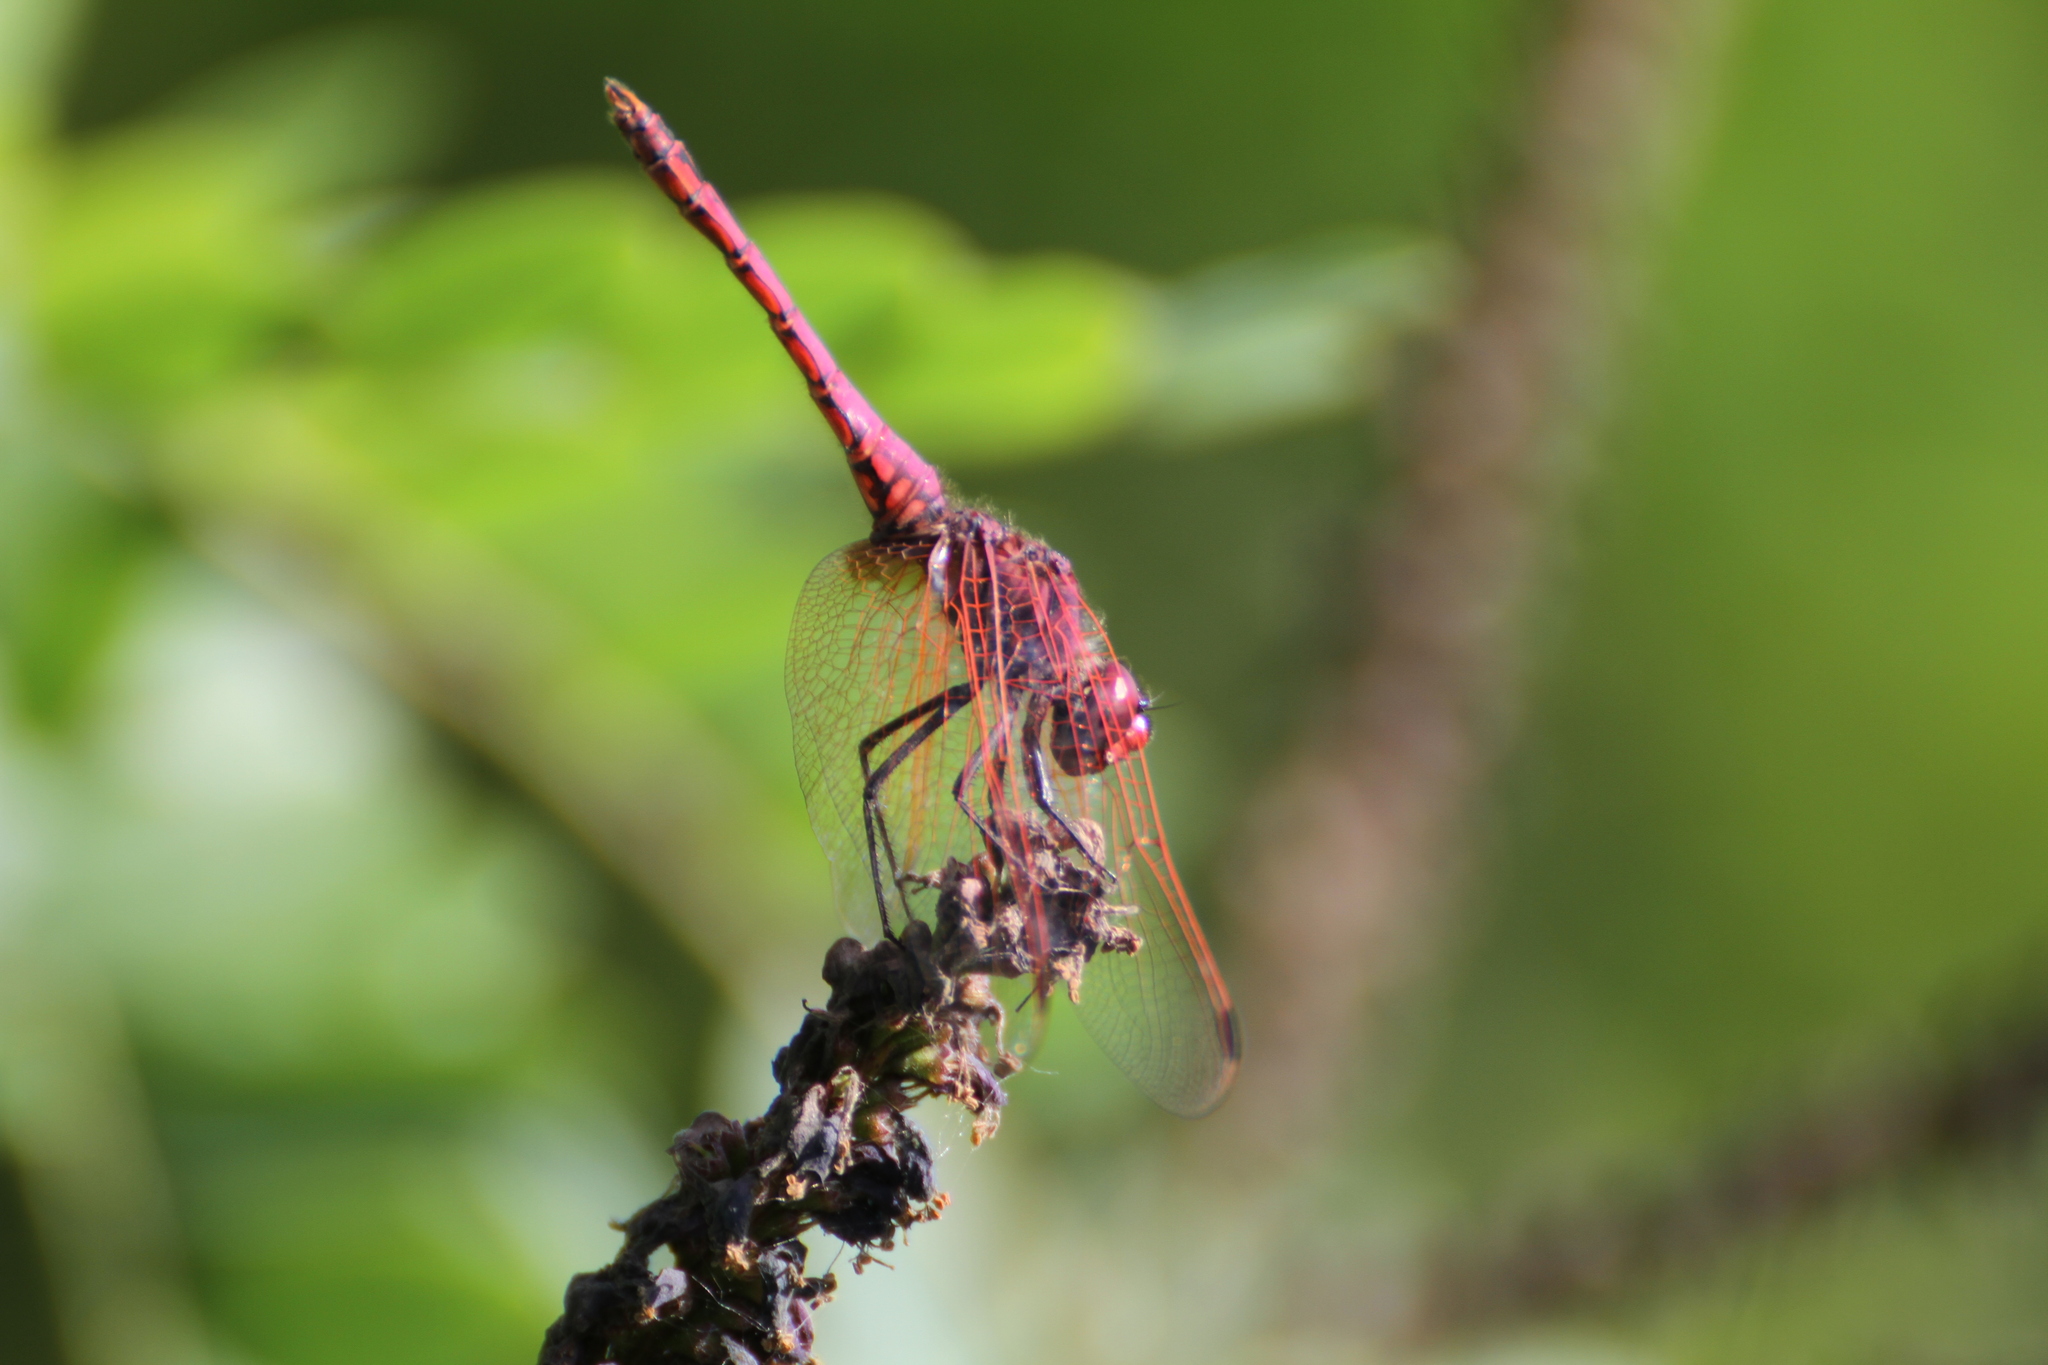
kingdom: Animalia
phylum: Arthropoda
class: Insecta
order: Odonata
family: Libellulidae
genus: Trithemis
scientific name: Trithemis annulata
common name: Violet dropwing
